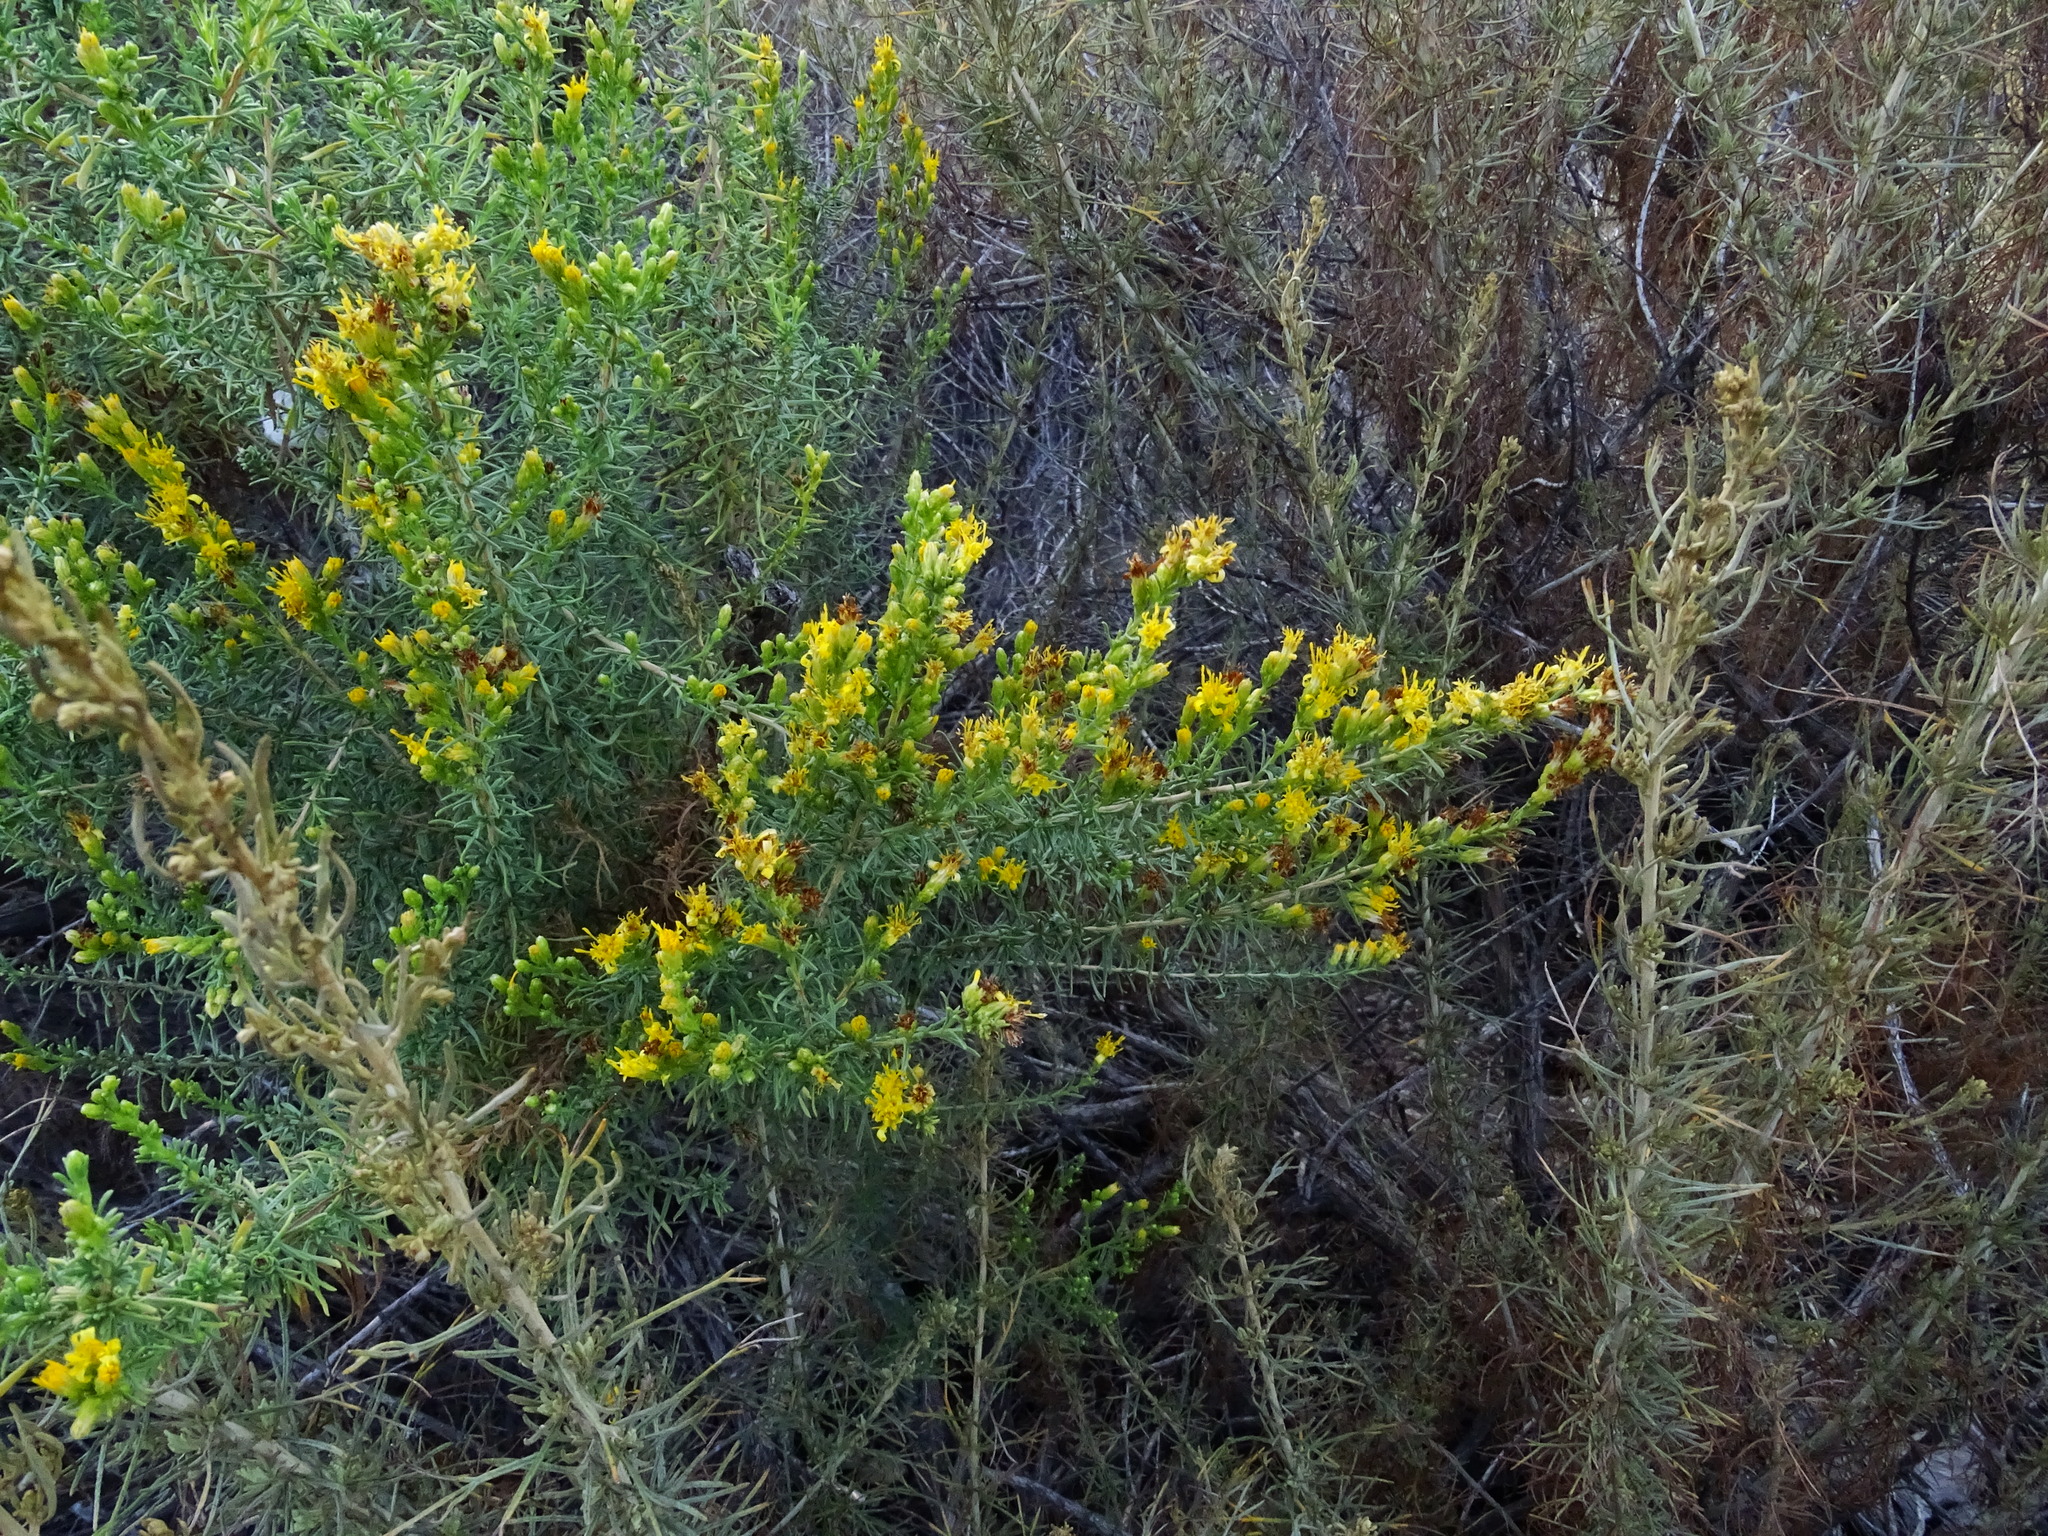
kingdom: Plantae
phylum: Tracheophyta
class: Magnoliopsida
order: Asterales
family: Asteraceae
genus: Ericameria
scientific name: Ericameria palmeri
